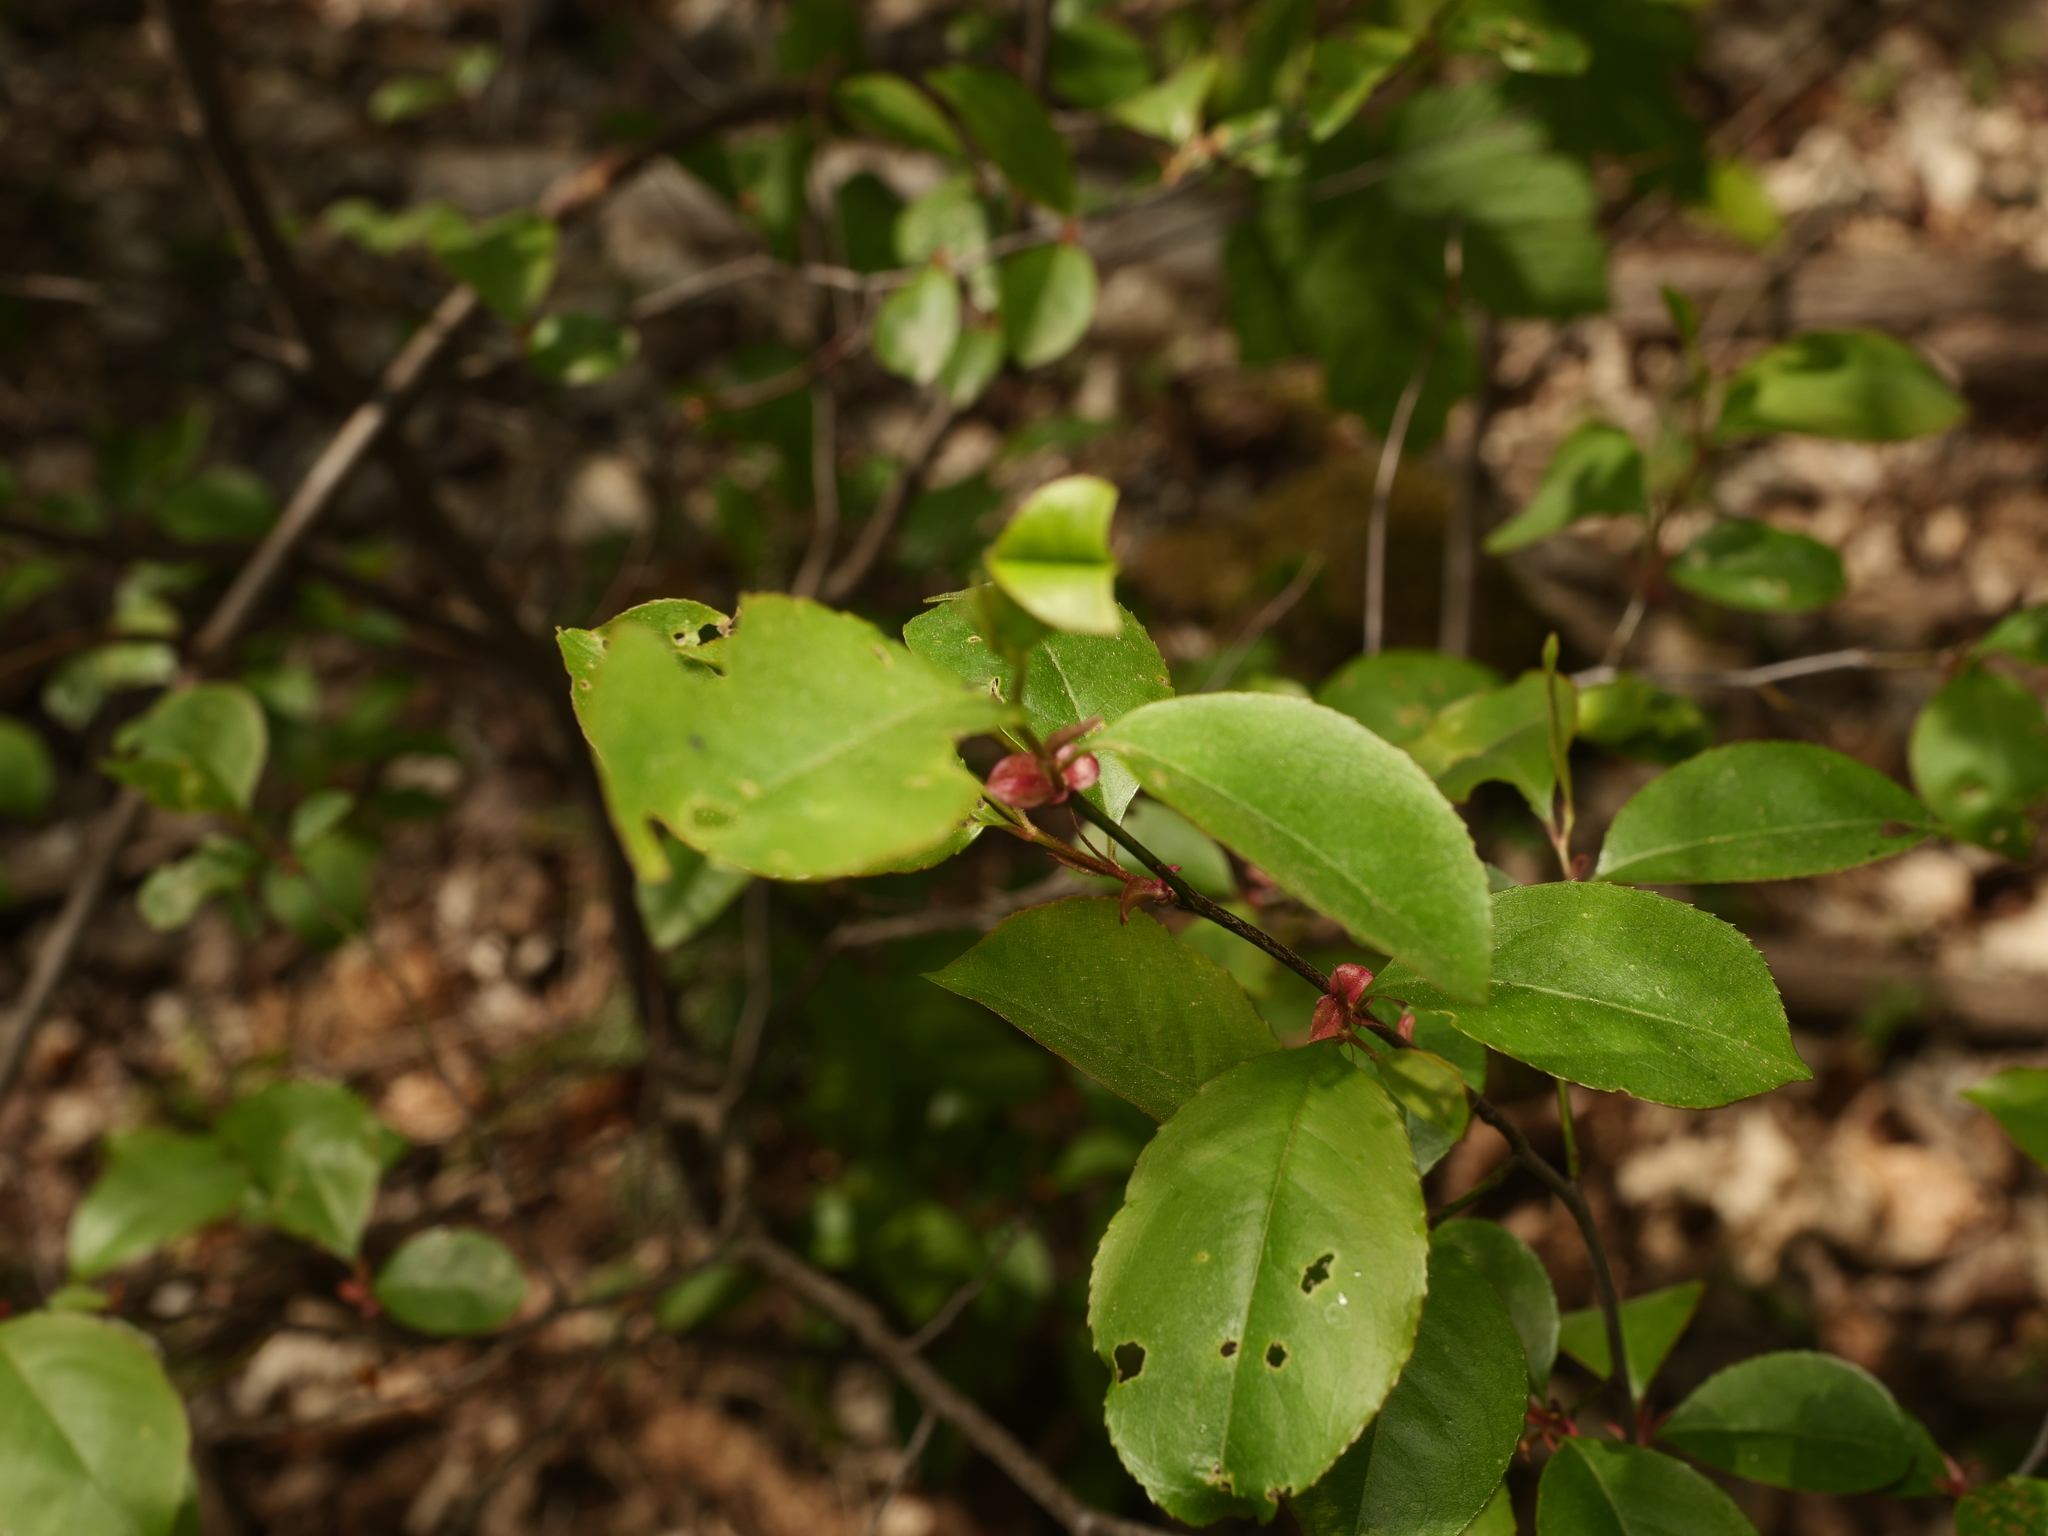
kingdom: Plantae
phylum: Tracheophyta
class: Magnoliopsida
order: Rosales
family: Rosaceae
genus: Prunus
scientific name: Prunus serotina
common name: Black cherry
